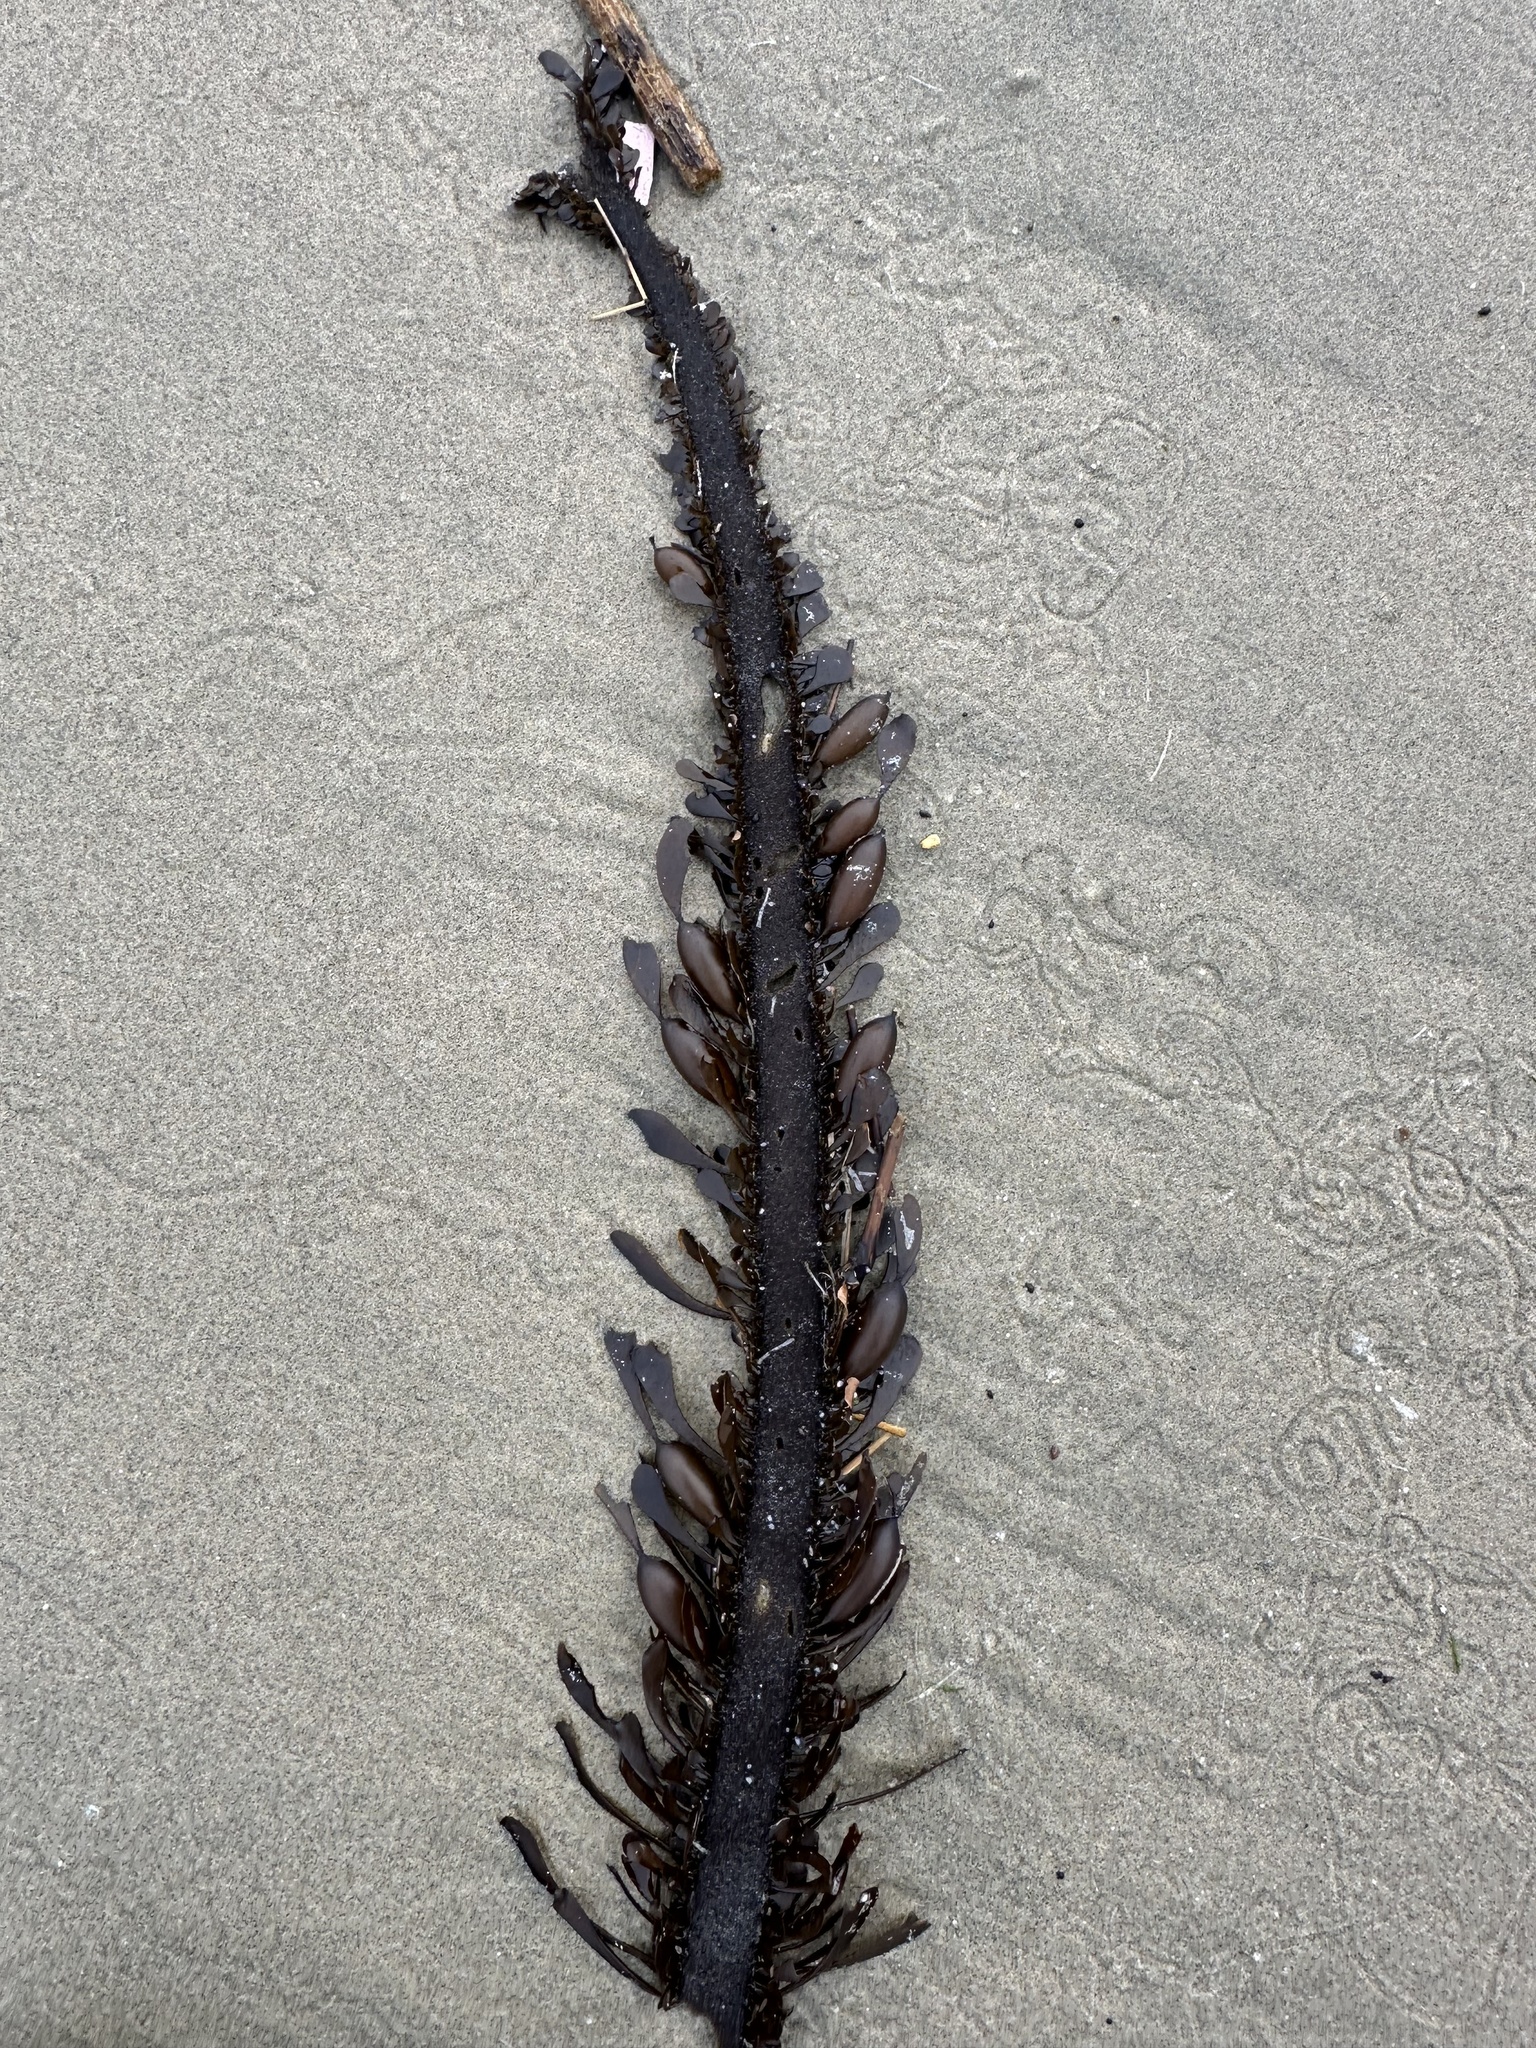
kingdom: Chromista
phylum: Ochrophyta
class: Phaeophyceae
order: Laminariales
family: Lessoniaceae
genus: Egregia
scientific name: Egregia menziesii
